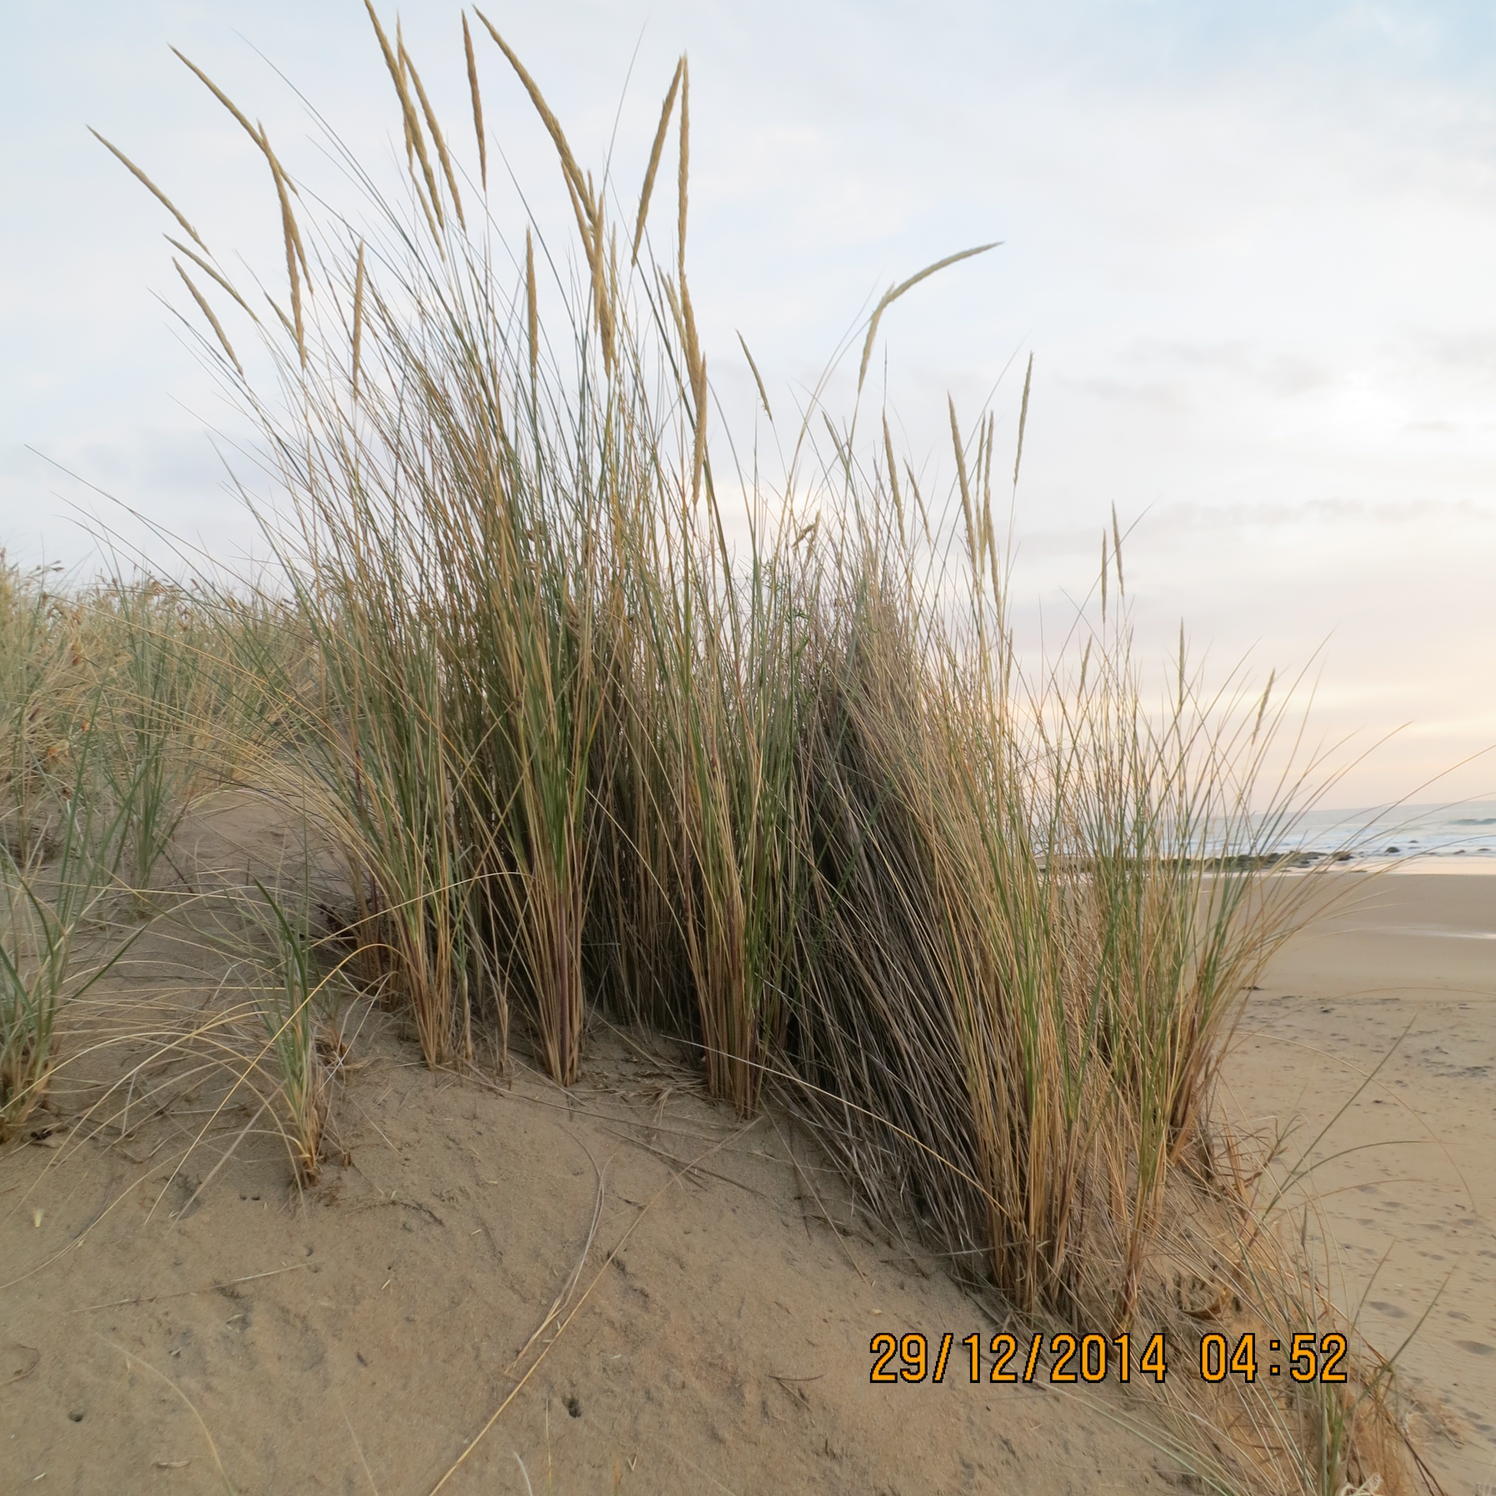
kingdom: Plantae
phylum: Tracheophyta
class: Liliopsida
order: Poales
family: Poaceae
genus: Calamagrostis
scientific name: Calamagrostis arenaria
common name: European beachgrass
